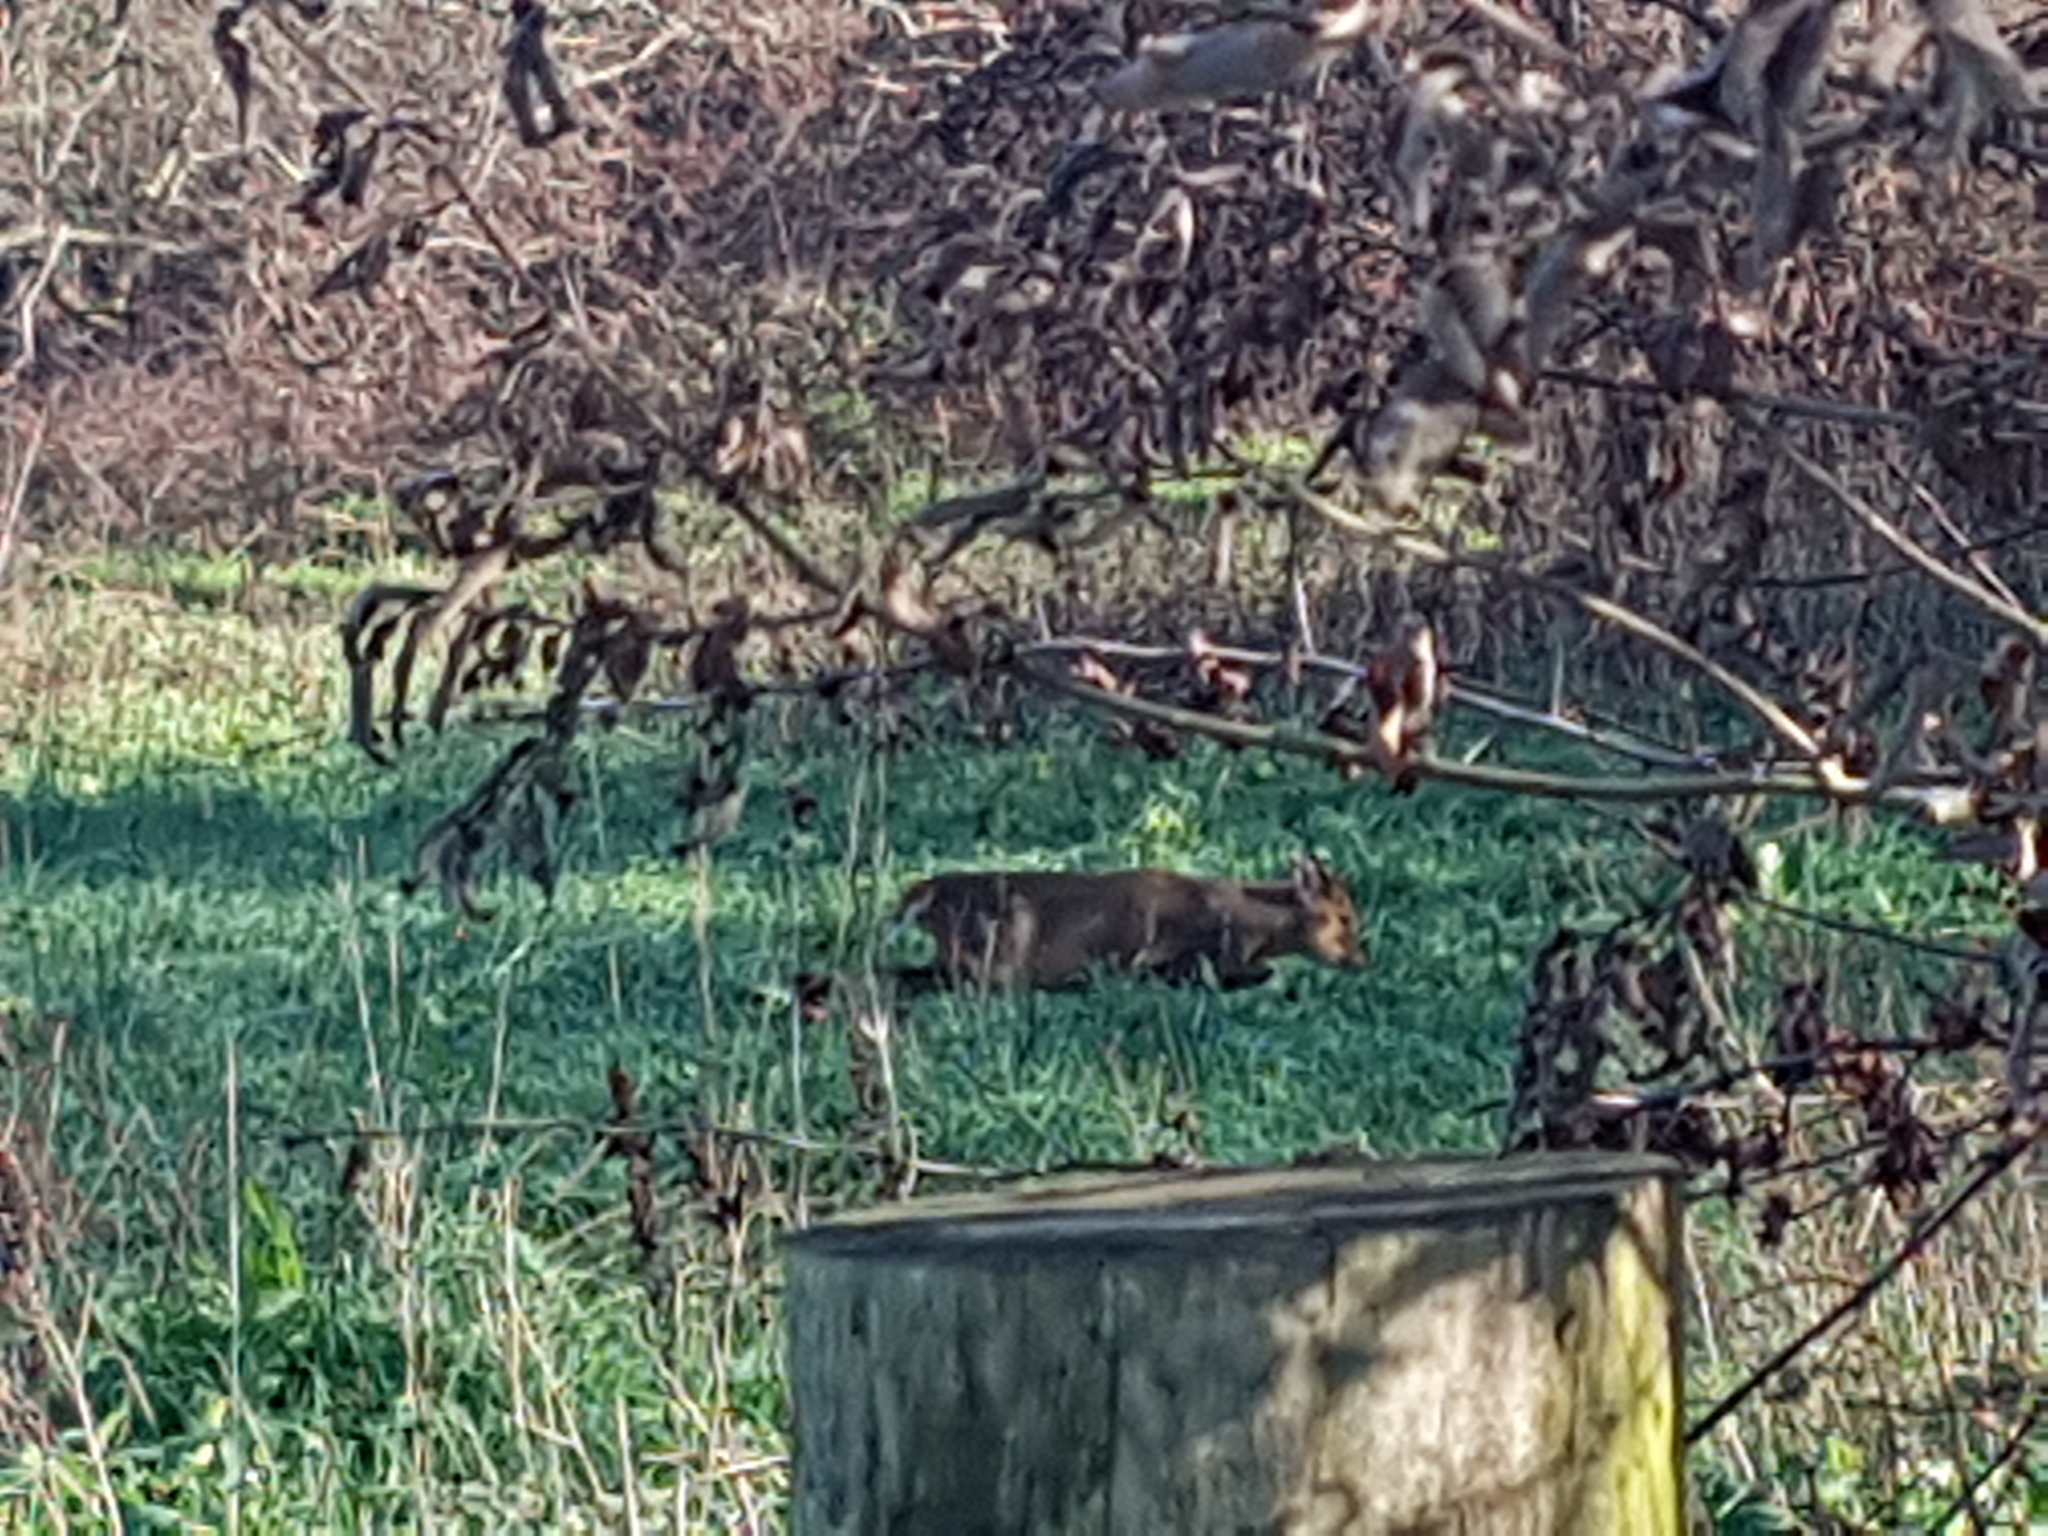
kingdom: Animalia
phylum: Chordata
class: Mammalia
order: Artiodactyla
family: Cervidae
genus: Muntiacus
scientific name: Muntiacus reevesi
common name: Reeves' muntjac
